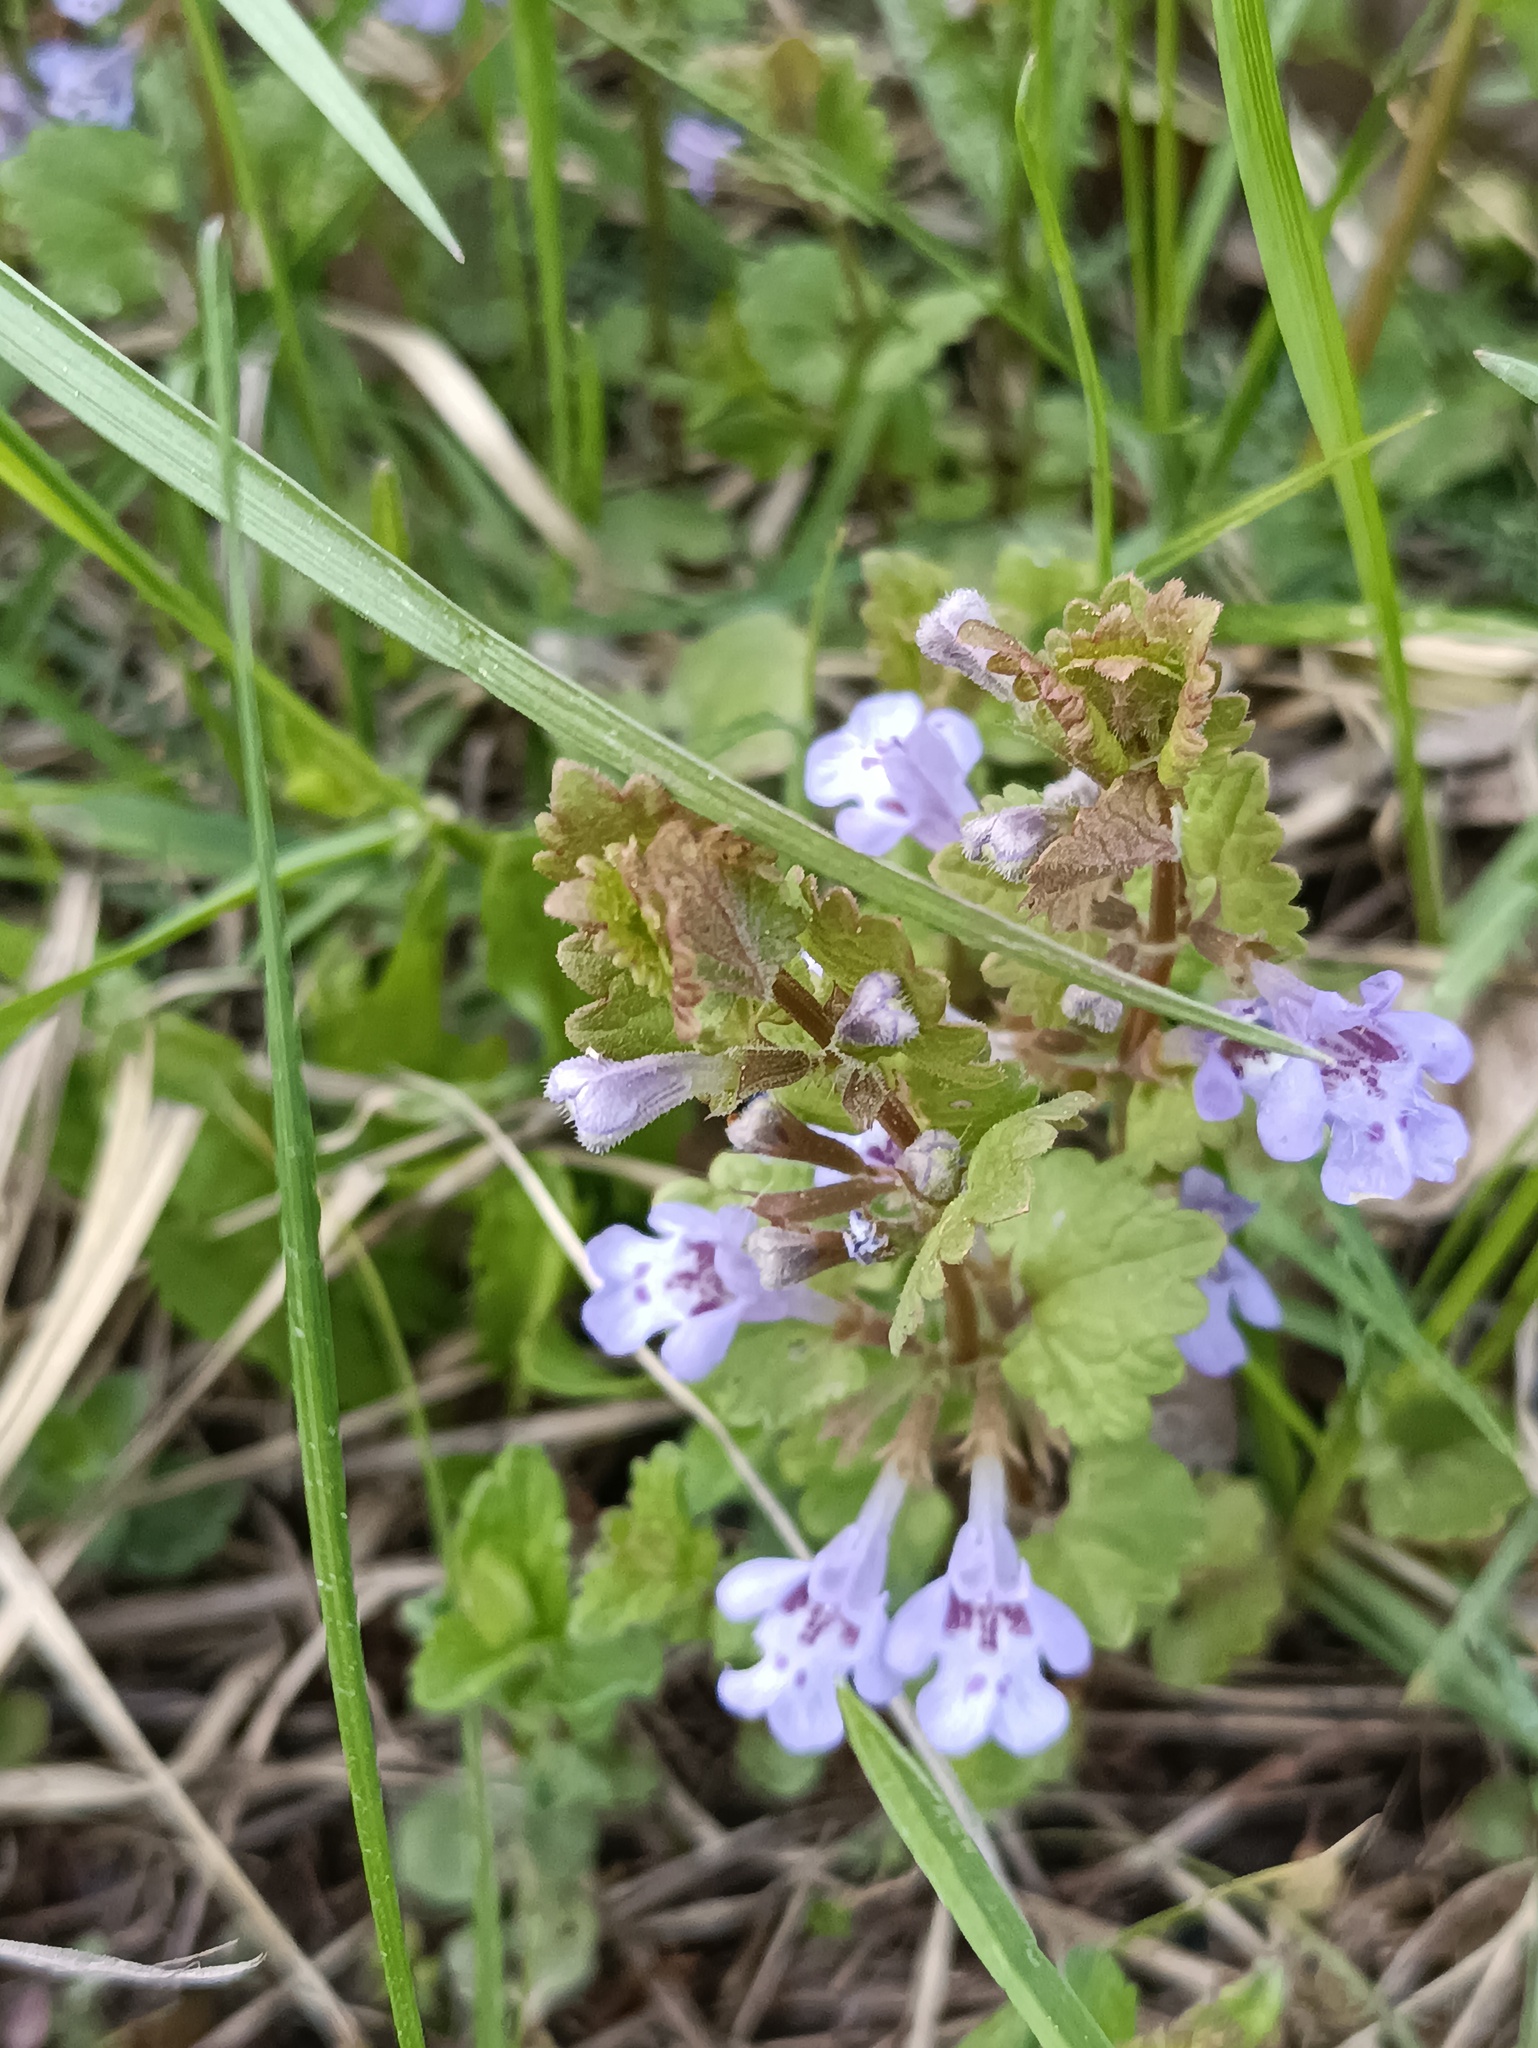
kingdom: Plantae
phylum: Tracheophyta
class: Magnoliopsida
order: Lamiales
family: Lamiaceae
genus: Glechoma
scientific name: Glechoma hederacea
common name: Ground ivy
